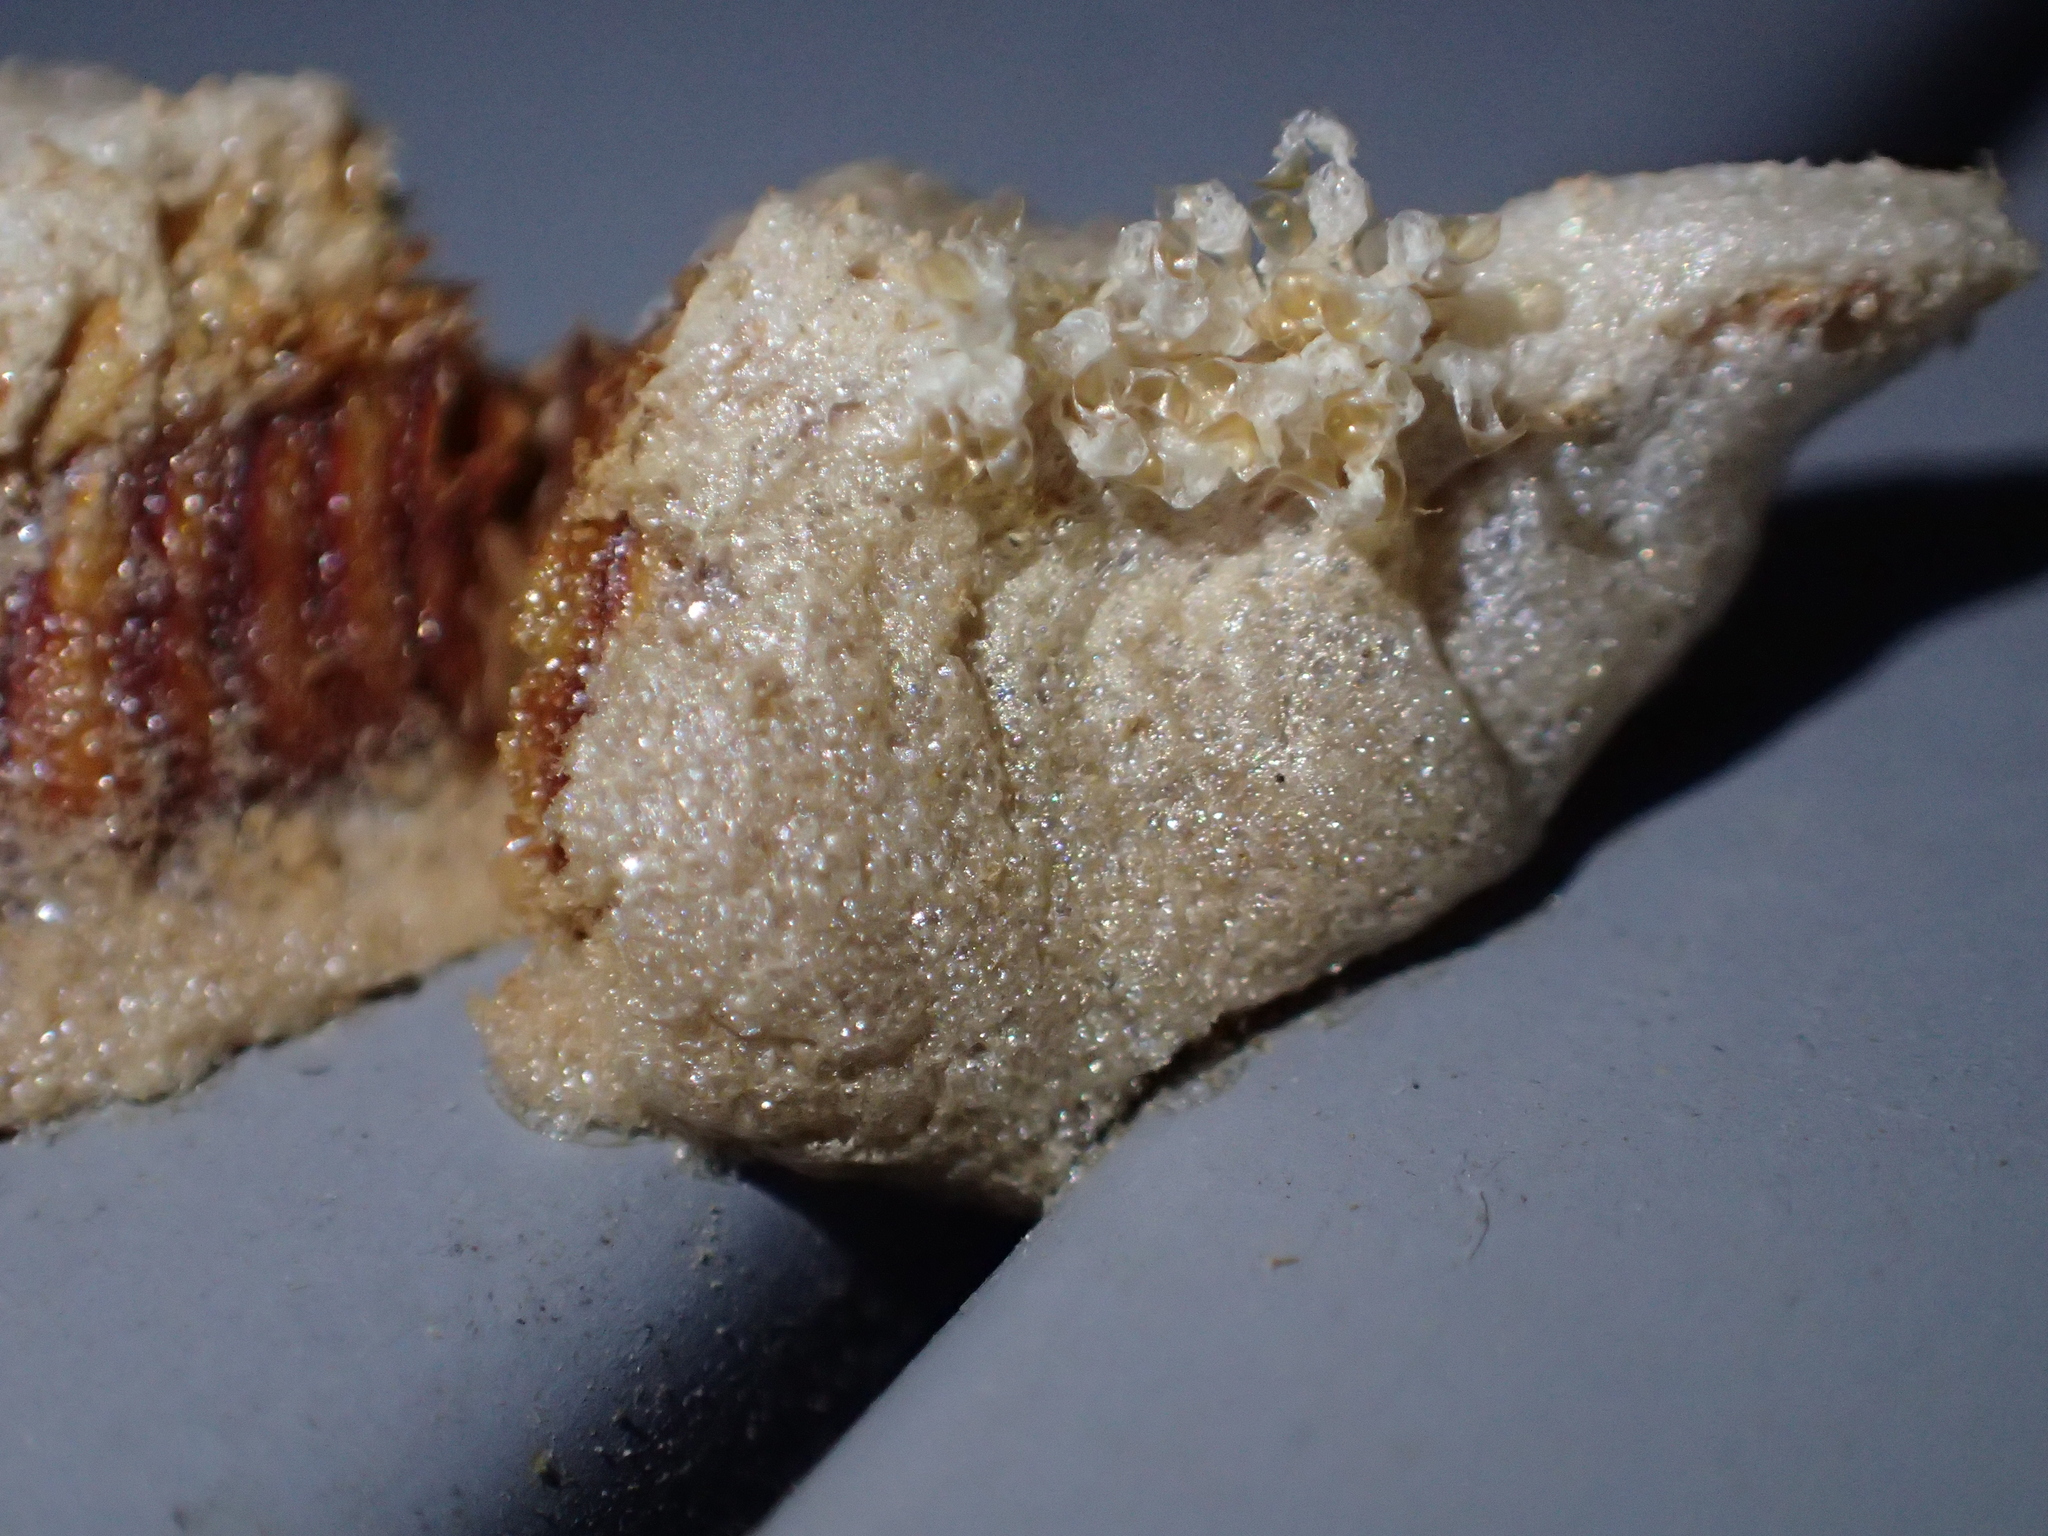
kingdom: Animalia
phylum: Arthropoda
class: Insecta
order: Mantodea
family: Miomantidae
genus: Miomantis
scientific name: Miomantis caffra
